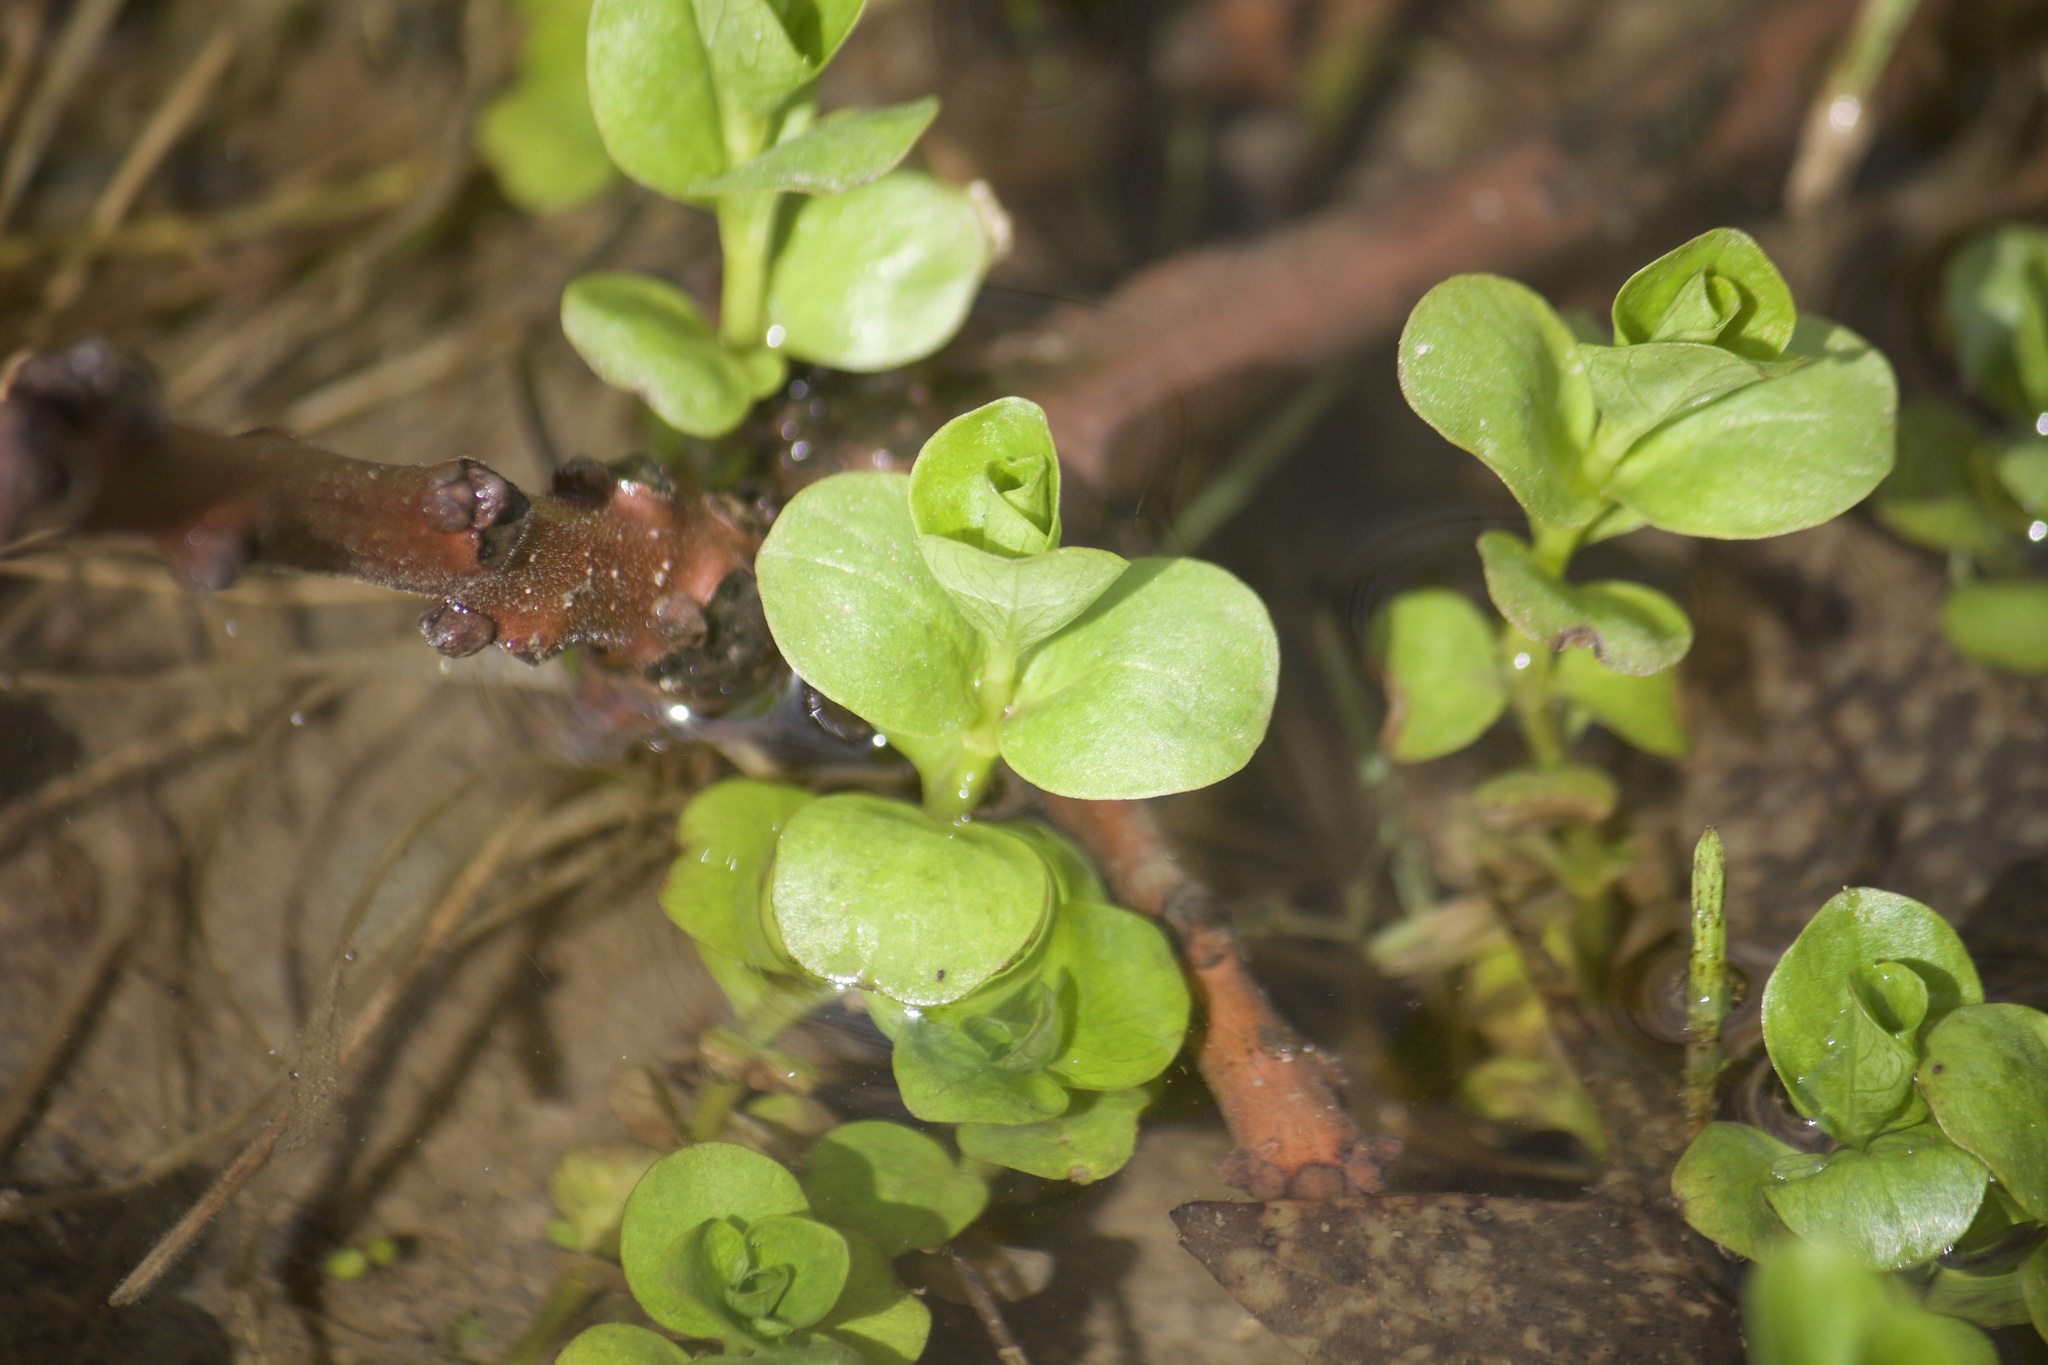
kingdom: Plantae
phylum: Tracheophyta
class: Magnoliopsida
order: Ericales
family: Primulaceae
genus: Lysimachia
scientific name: Lysimachia nummularia
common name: Moneywort
